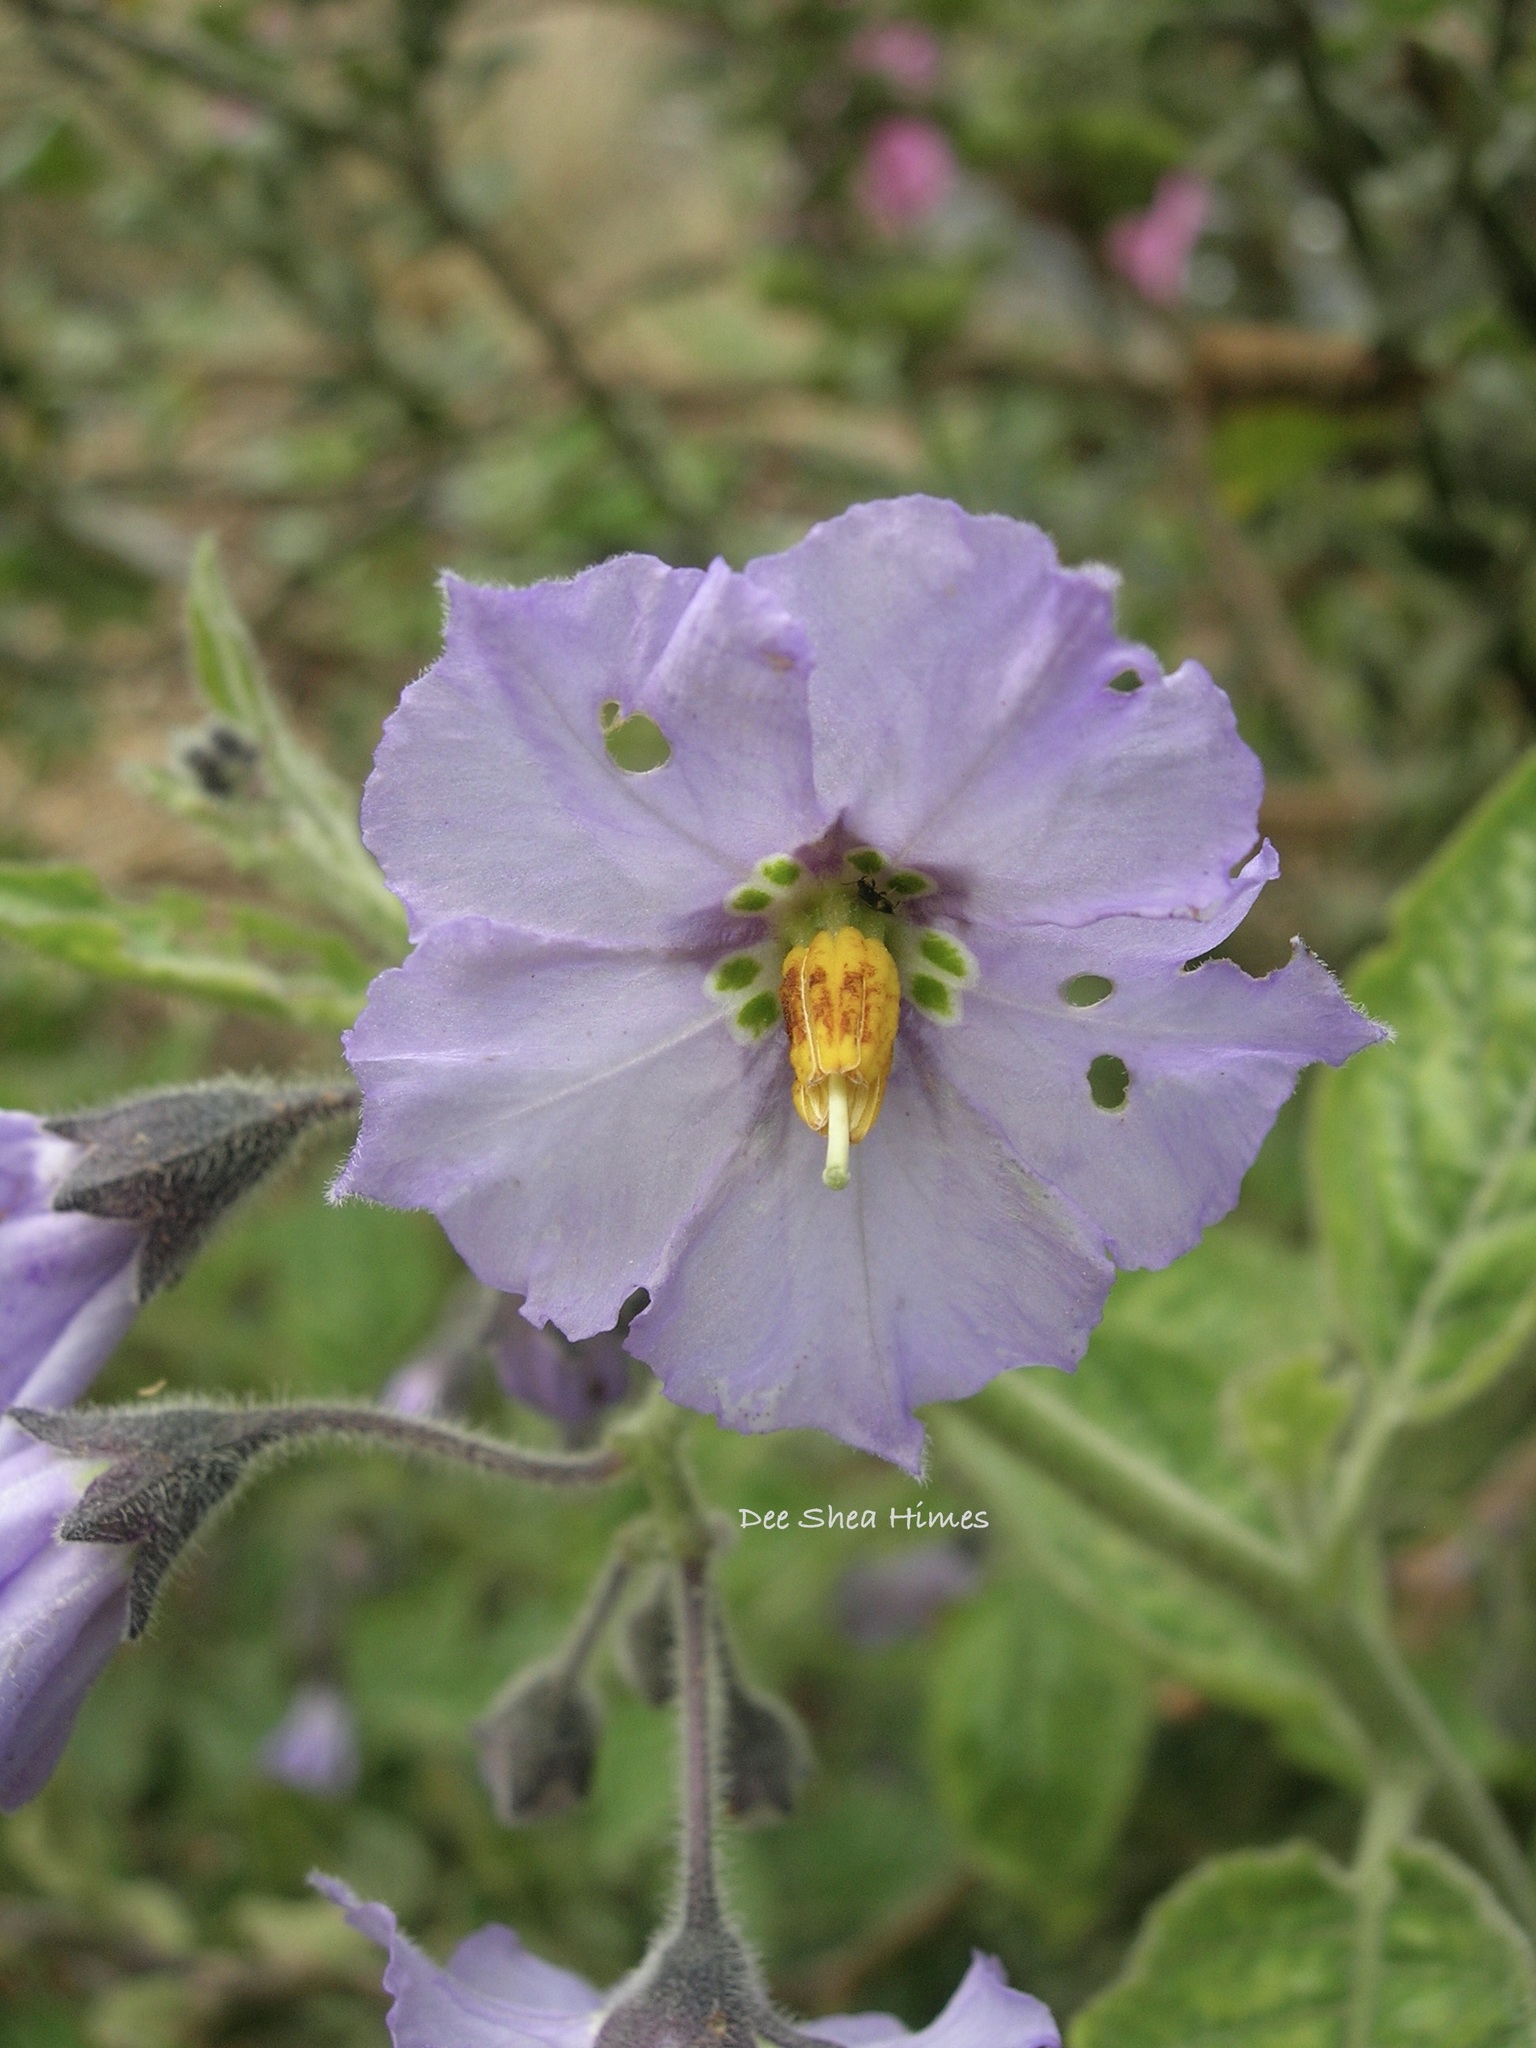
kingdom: Plantae
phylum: Tracheophyta
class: Magnoliopsida
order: Solanales
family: Solanaceae
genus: Solanum
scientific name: Solanum umbelliferum
